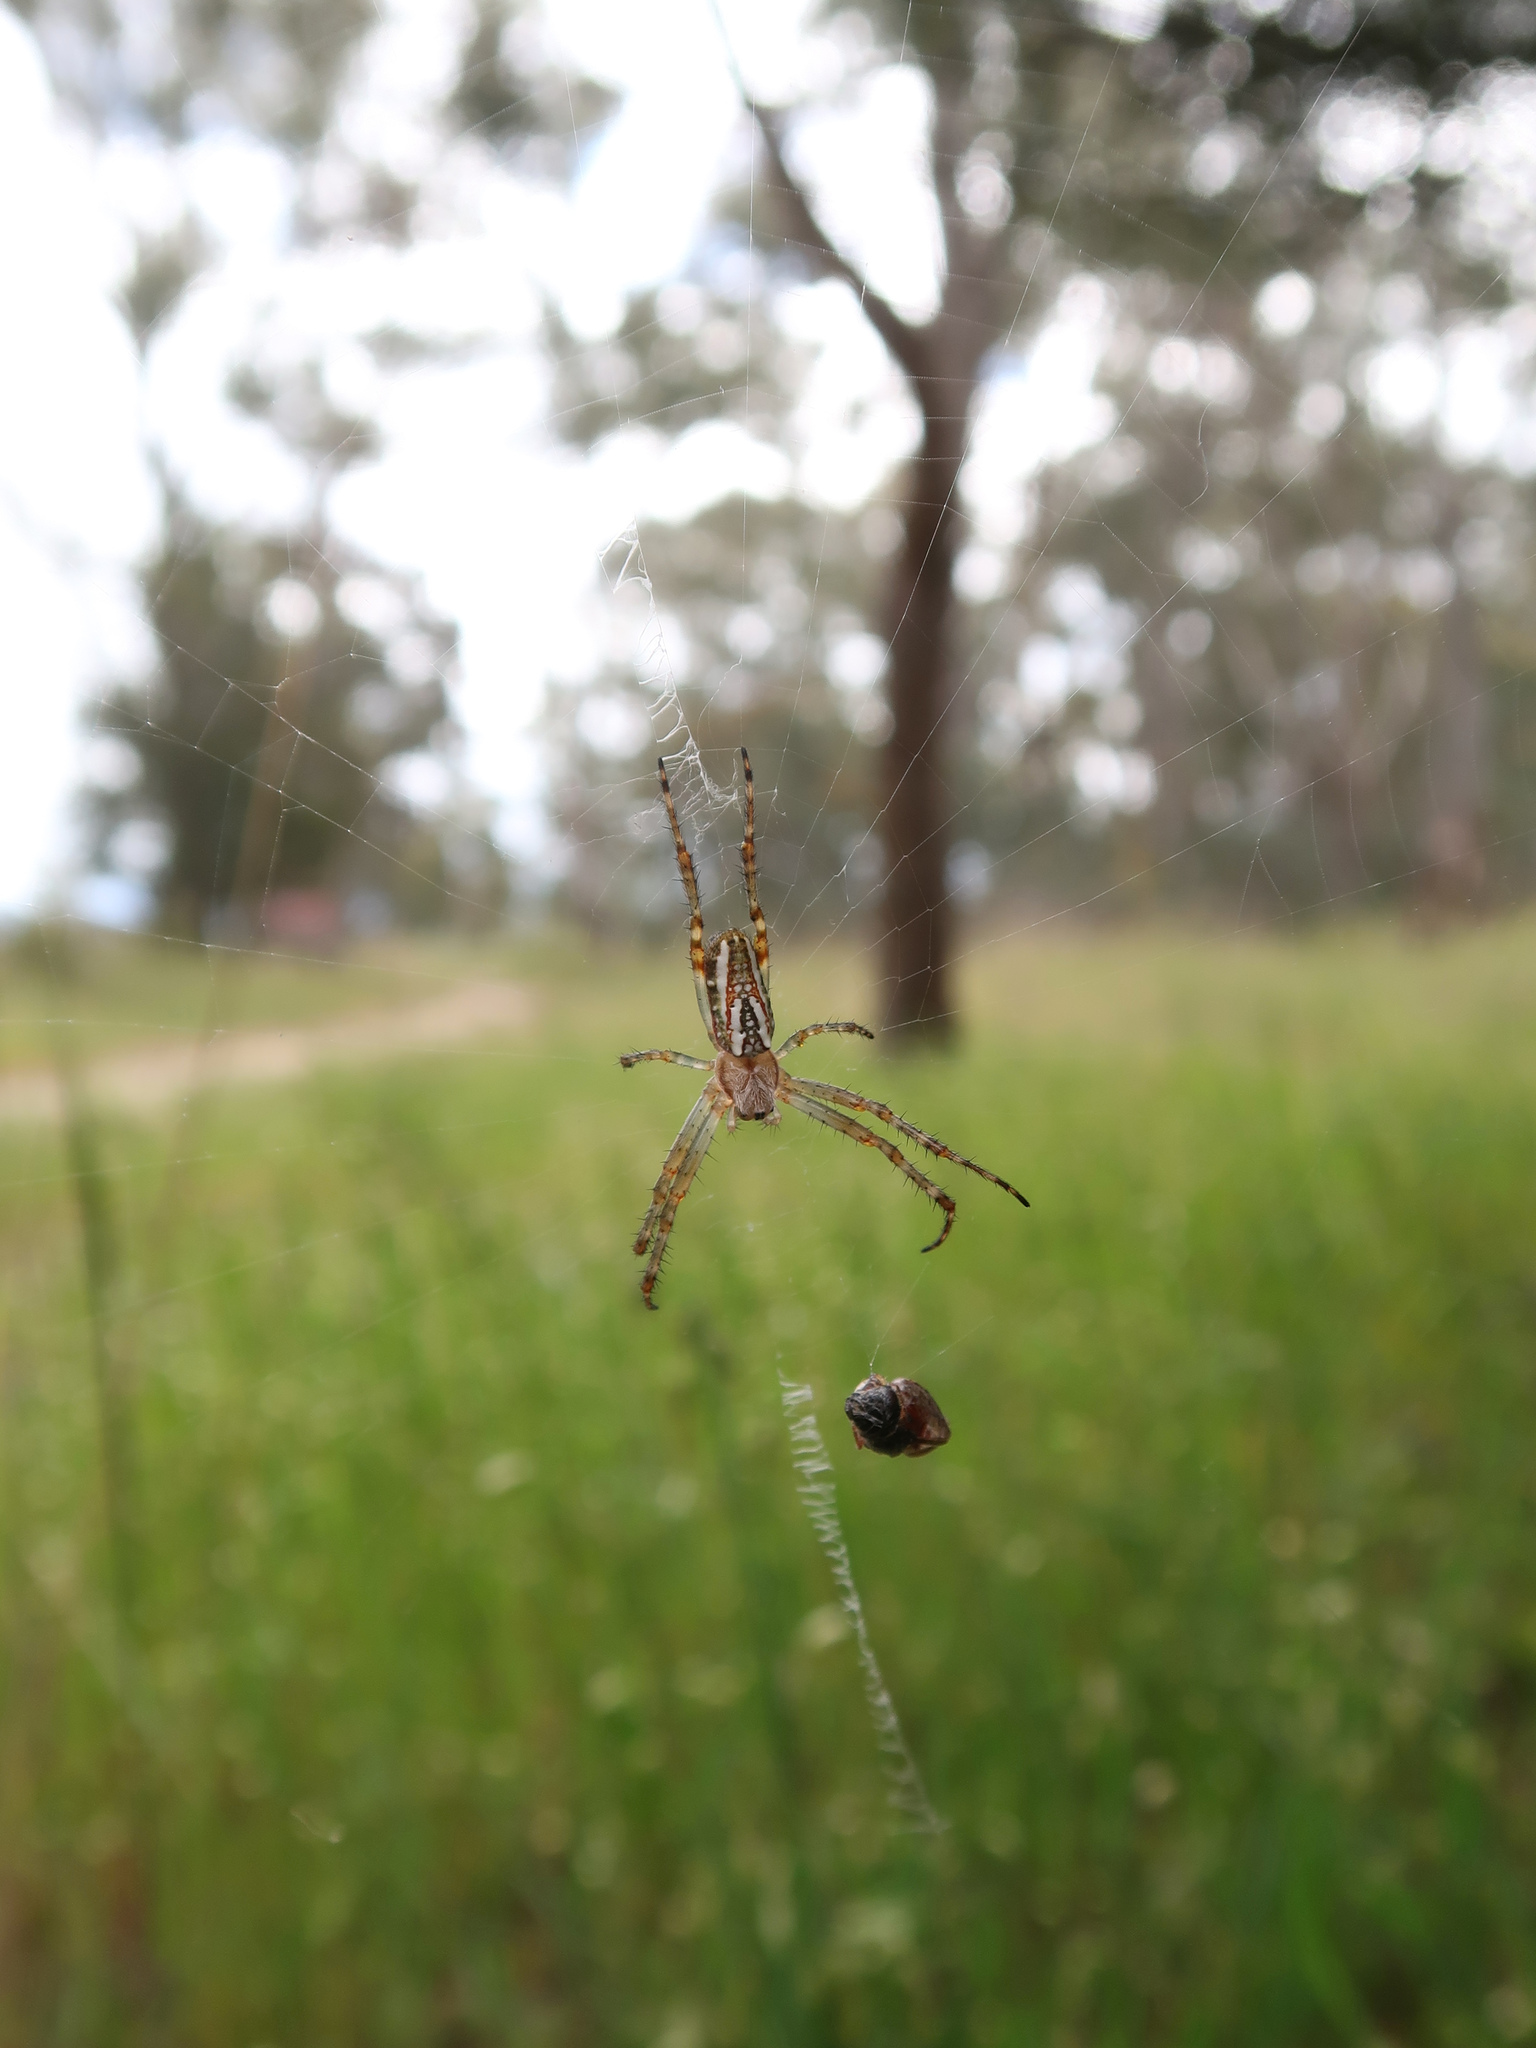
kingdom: Animalia
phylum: Arthropoda
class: Arachnida
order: Araneae
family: Araneidae
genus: Plebs
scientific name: Plebs bradleyi
